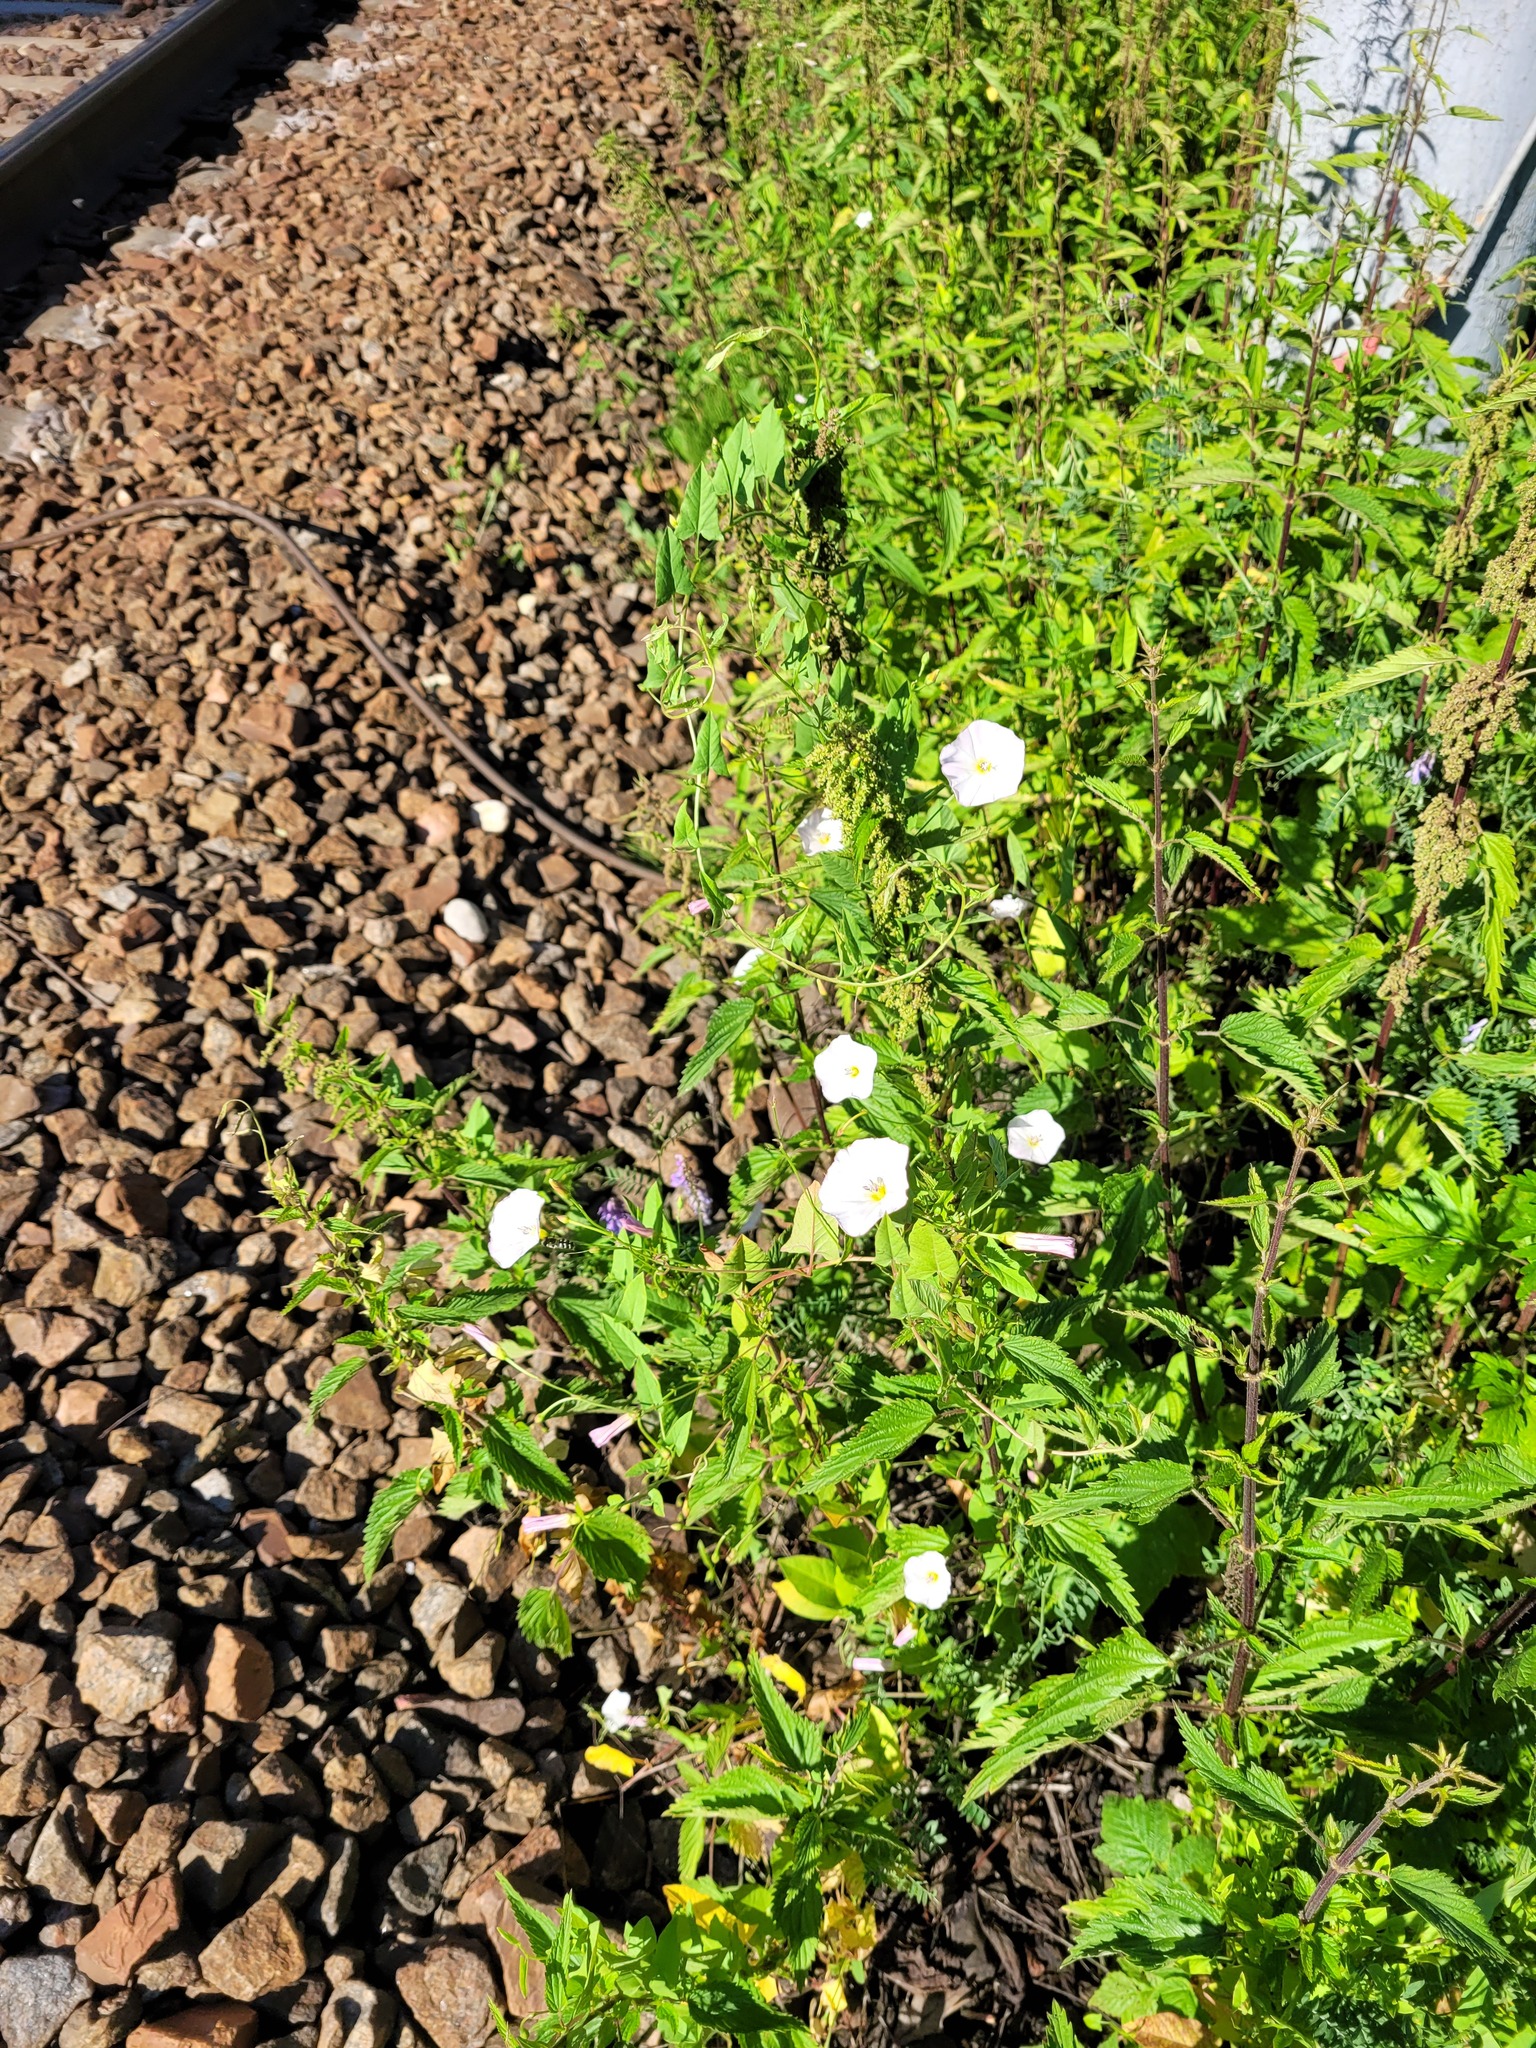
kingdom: Plantae
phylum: Tracheophyta
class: Magnoliopsida
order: Solanales
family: Convolvulaceae
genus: Convolvulus
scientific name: Convolvulus arvensis
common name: Field bindweed
